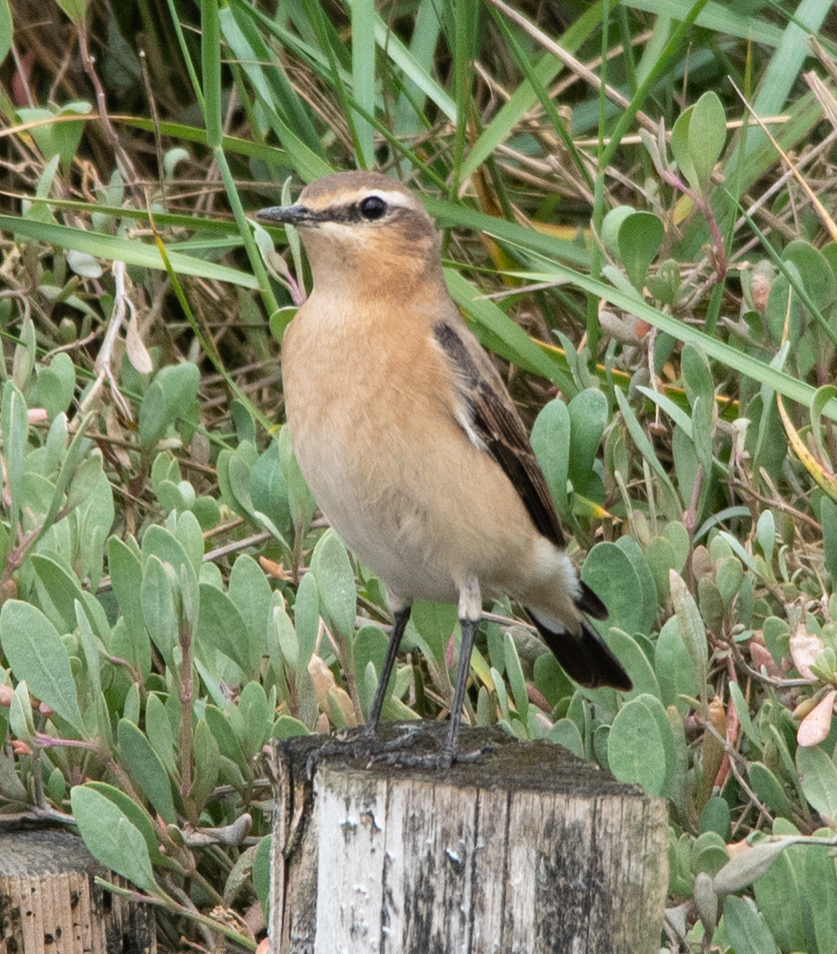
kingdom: Animalia
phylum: Chordata
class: Aves
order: Passeriformes
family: Muscicapidae
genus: Oenanthe
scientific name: Oenanthe oenanthe
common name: Northern wheatear
